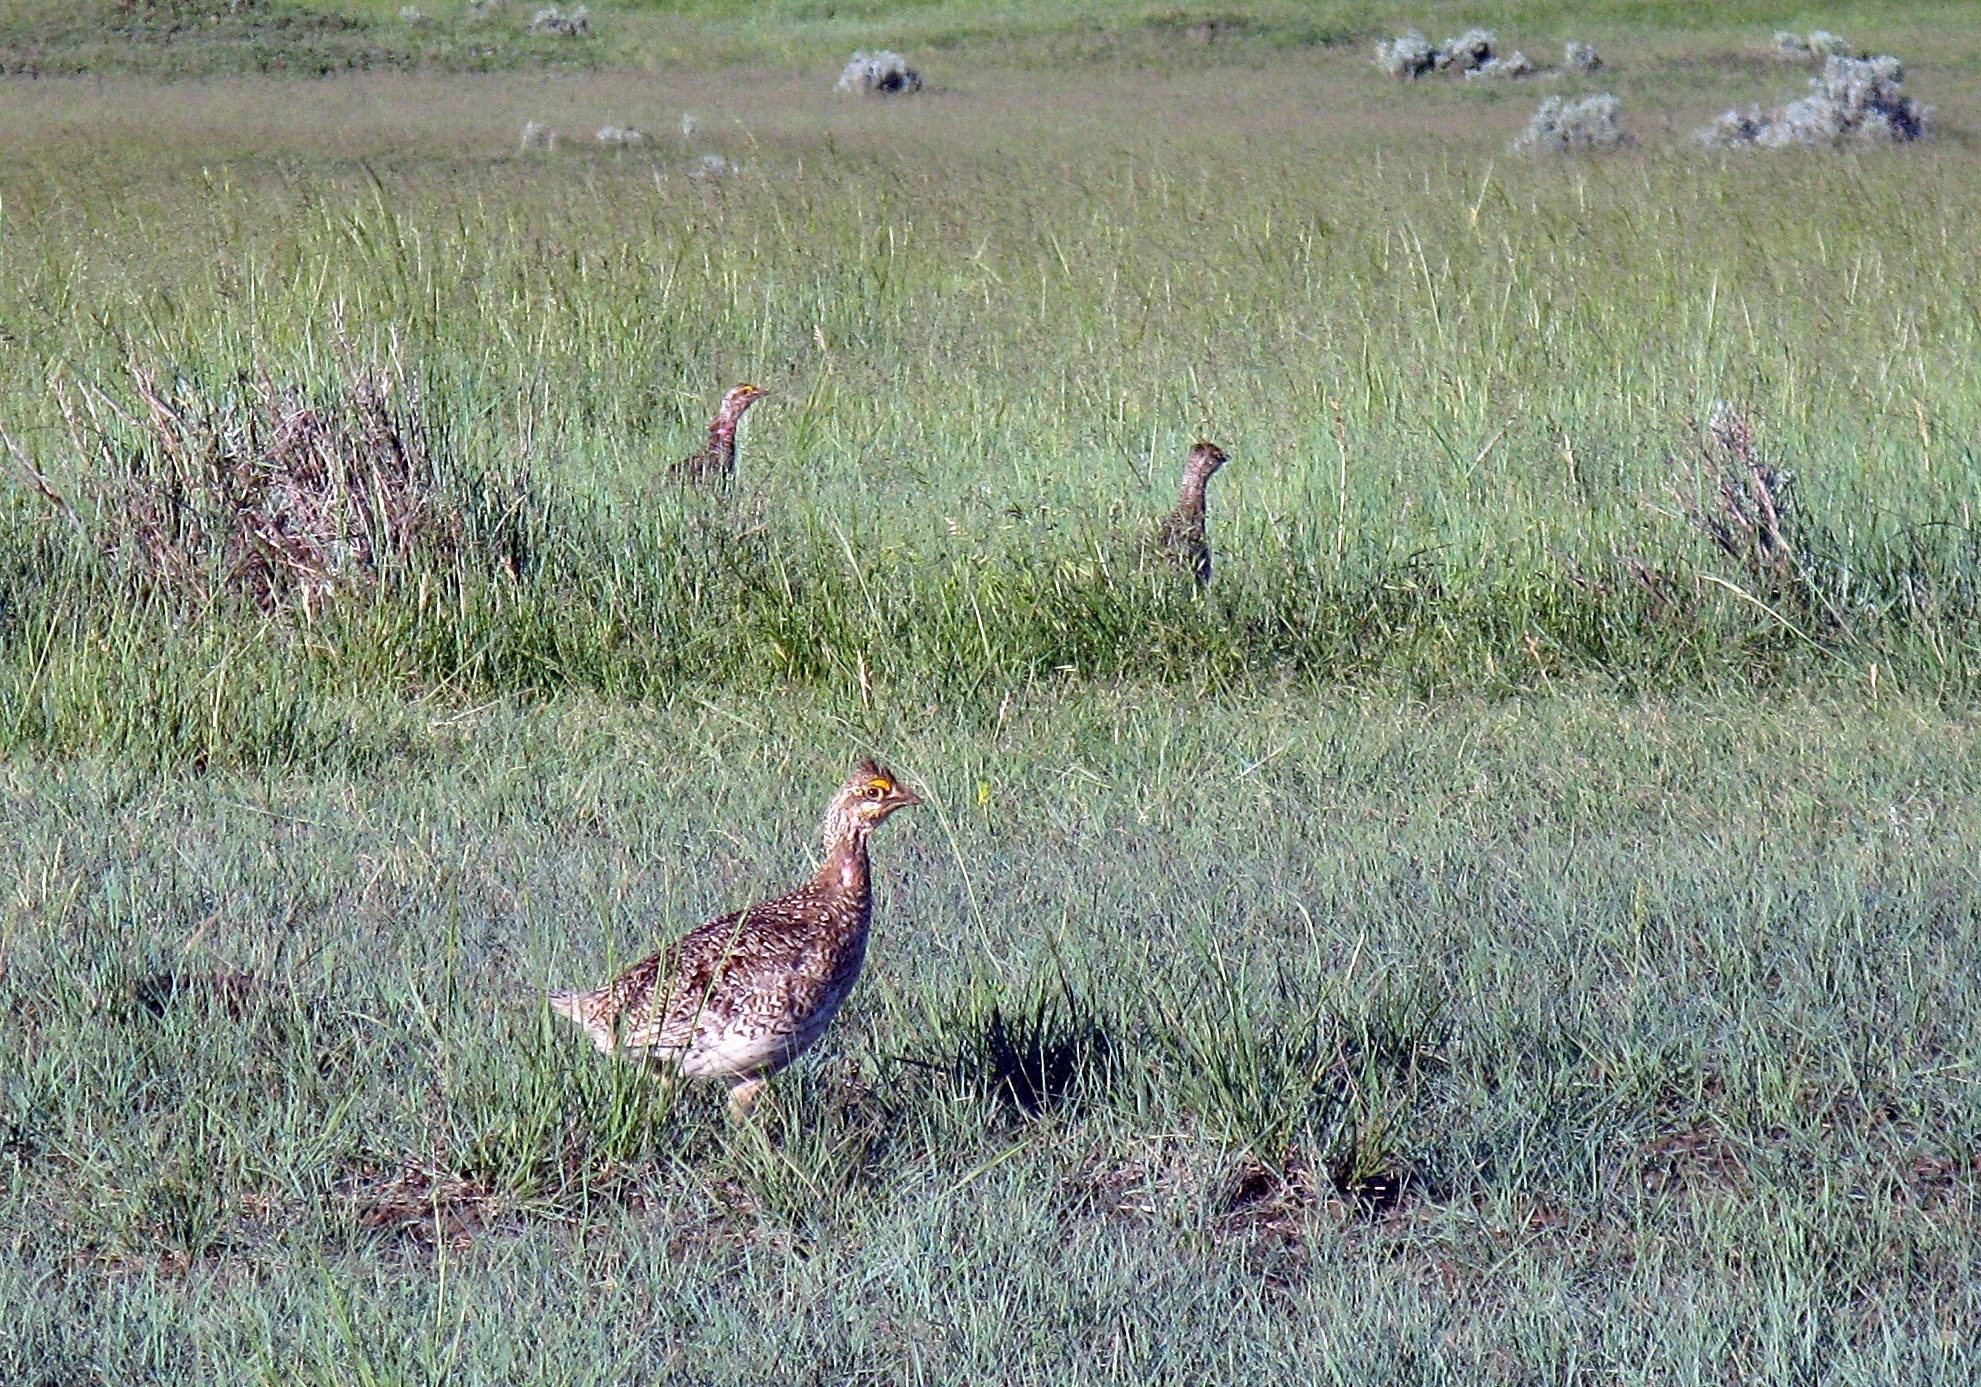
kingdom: Animalia
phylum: Chordata
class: Aves
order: Galliformes
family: Phasianidae
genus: Tympanuchus
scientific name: Tympanuchus phasianellus
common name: Sharp-tailed grouse
